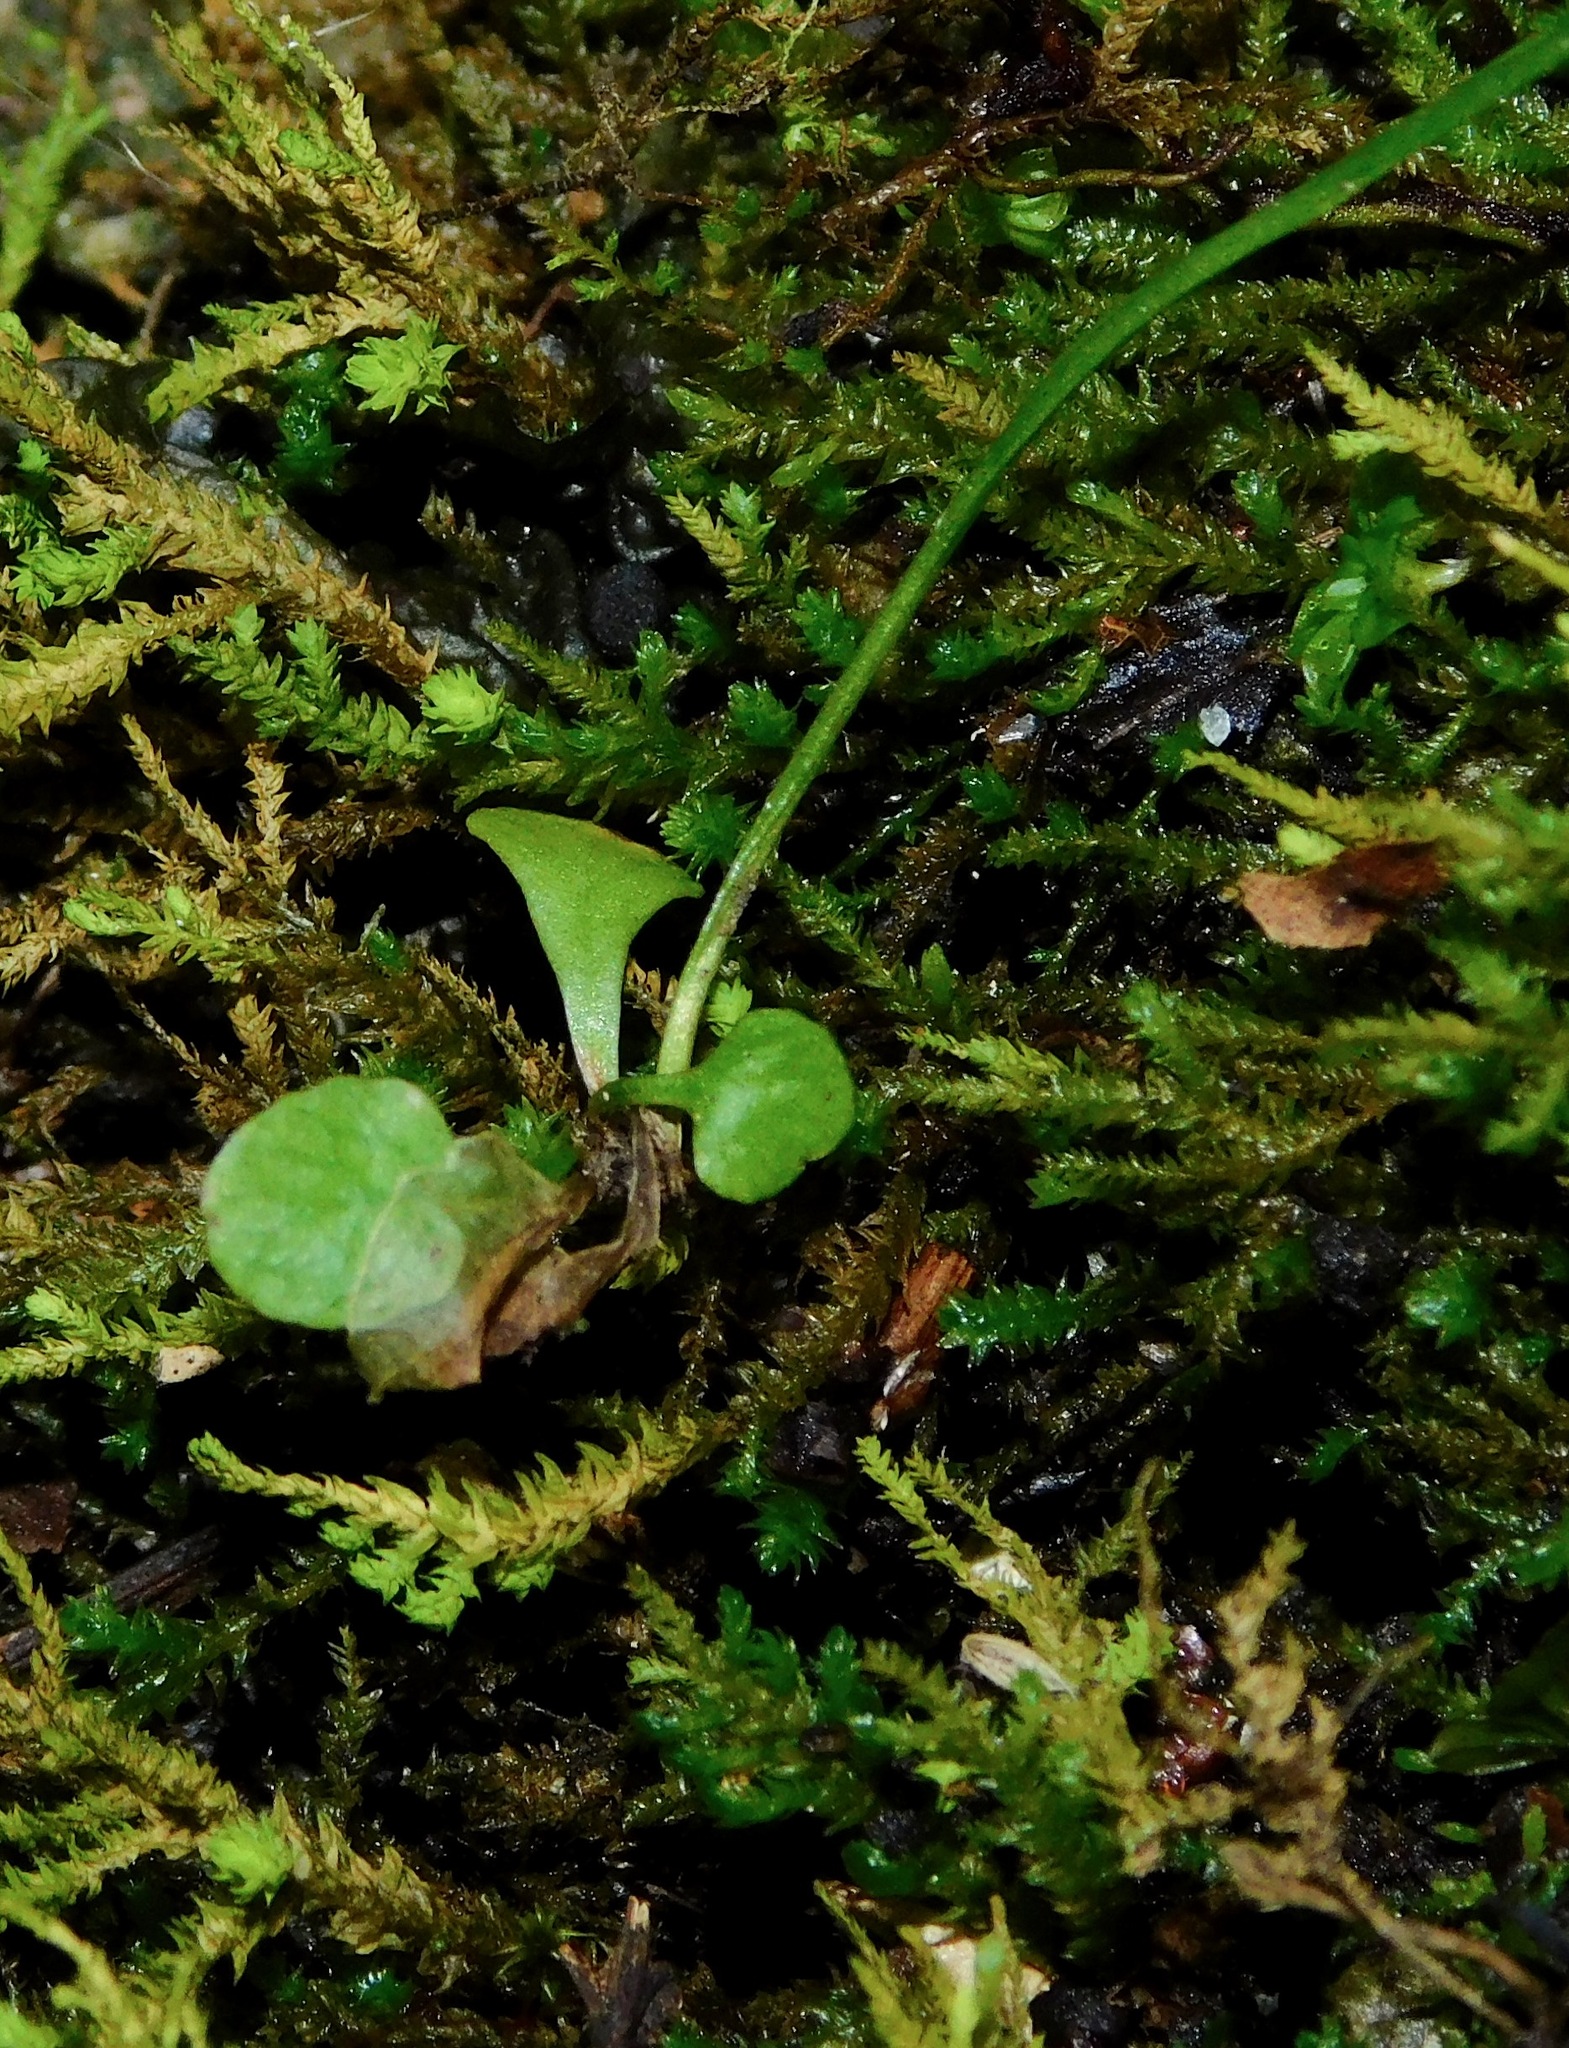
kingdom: Plantae
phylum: Tracheophyta
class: Polypodiopsida
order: Polypodiales
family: Aspleniaceae
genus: Asplenium
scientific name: Asplenium rhizophyllum
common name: Walking fern
